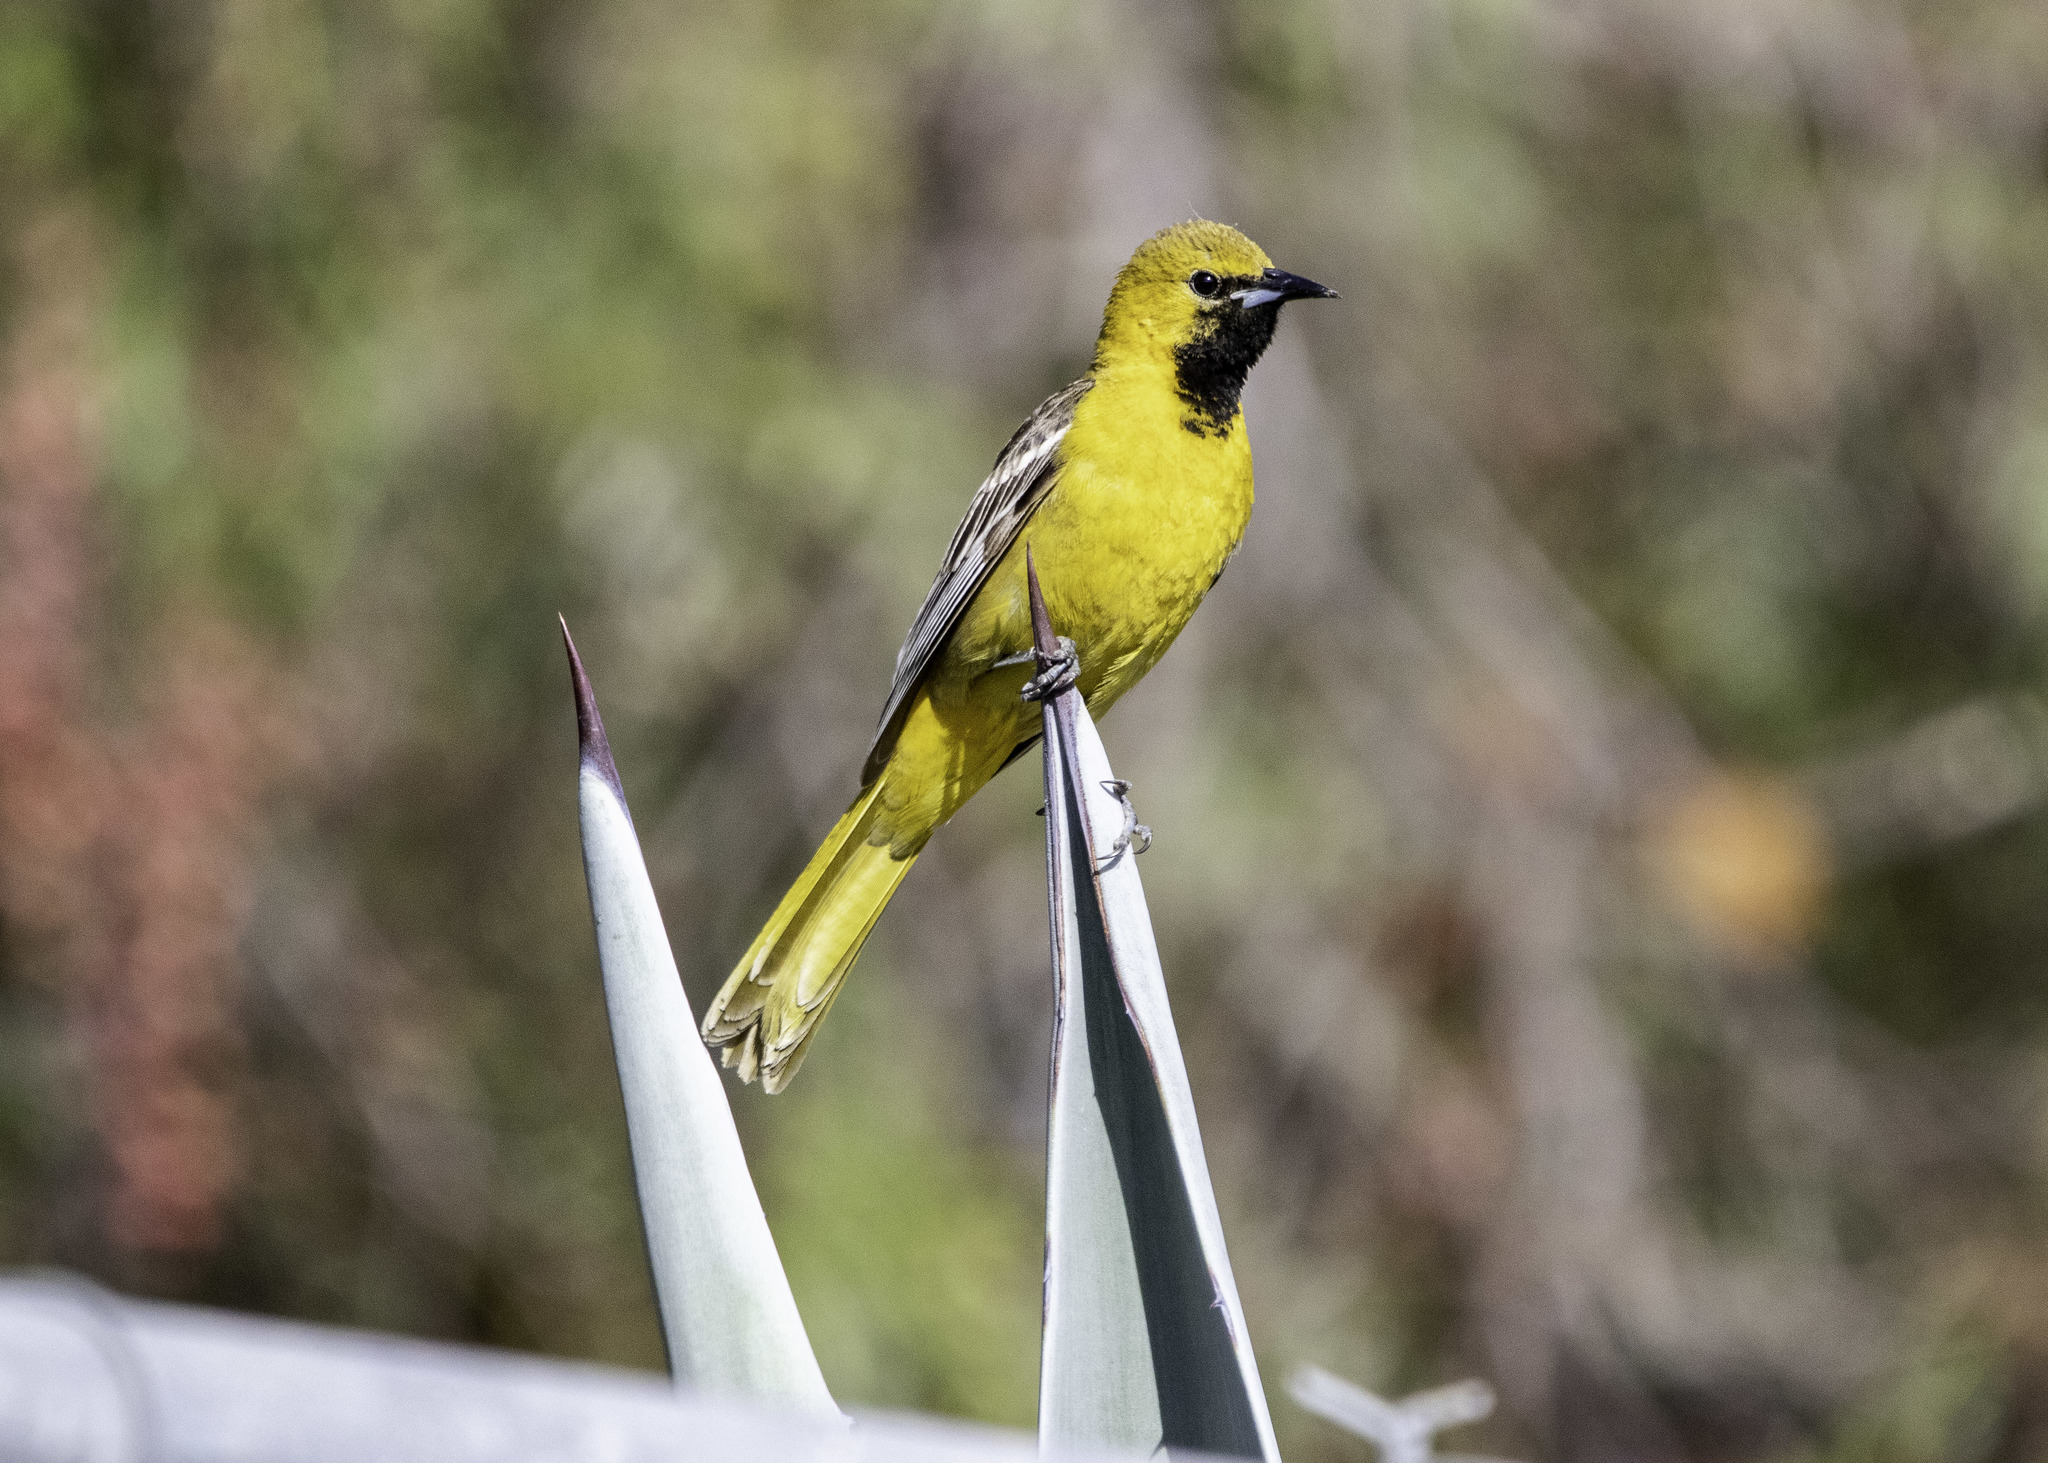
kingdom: Animalia
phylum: Chordata
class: Aves
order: Passeriformes
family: Icteridae
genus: Icterus
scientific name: Icterus cucullatus
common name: Hooded oriole
